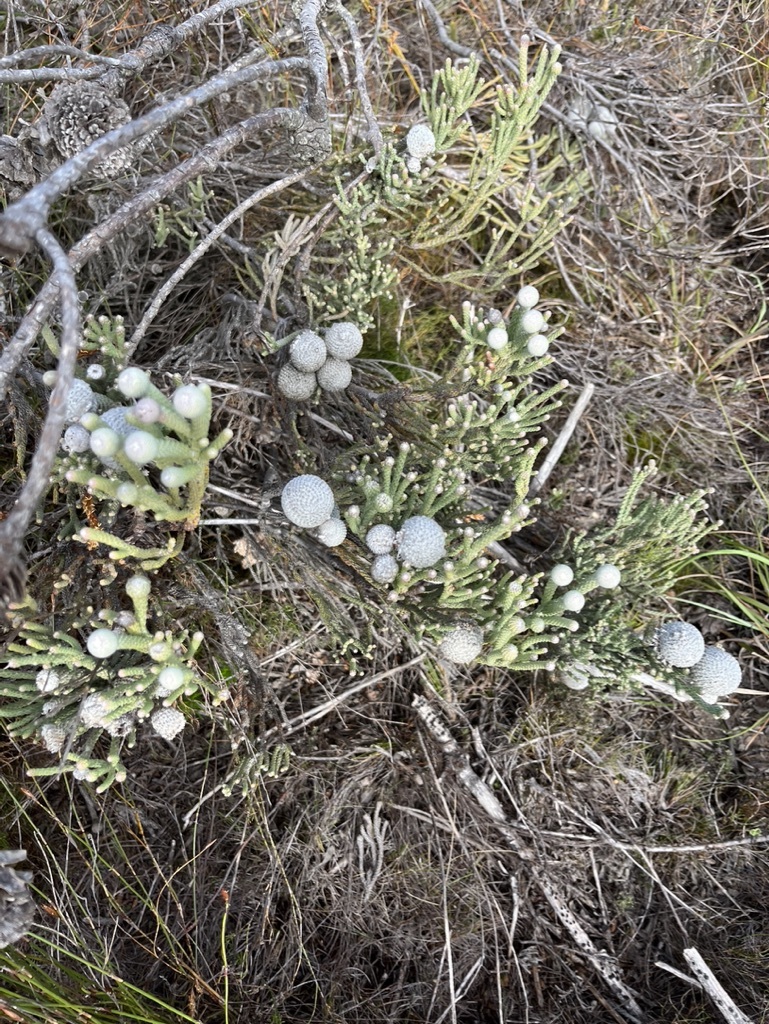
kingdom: Plantae
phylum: Tracheophyta
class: Magnoliopsida
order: Bruniales
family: Bruniaceae
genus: Brunia
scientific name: Brunia laevis
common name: Silver brunia
